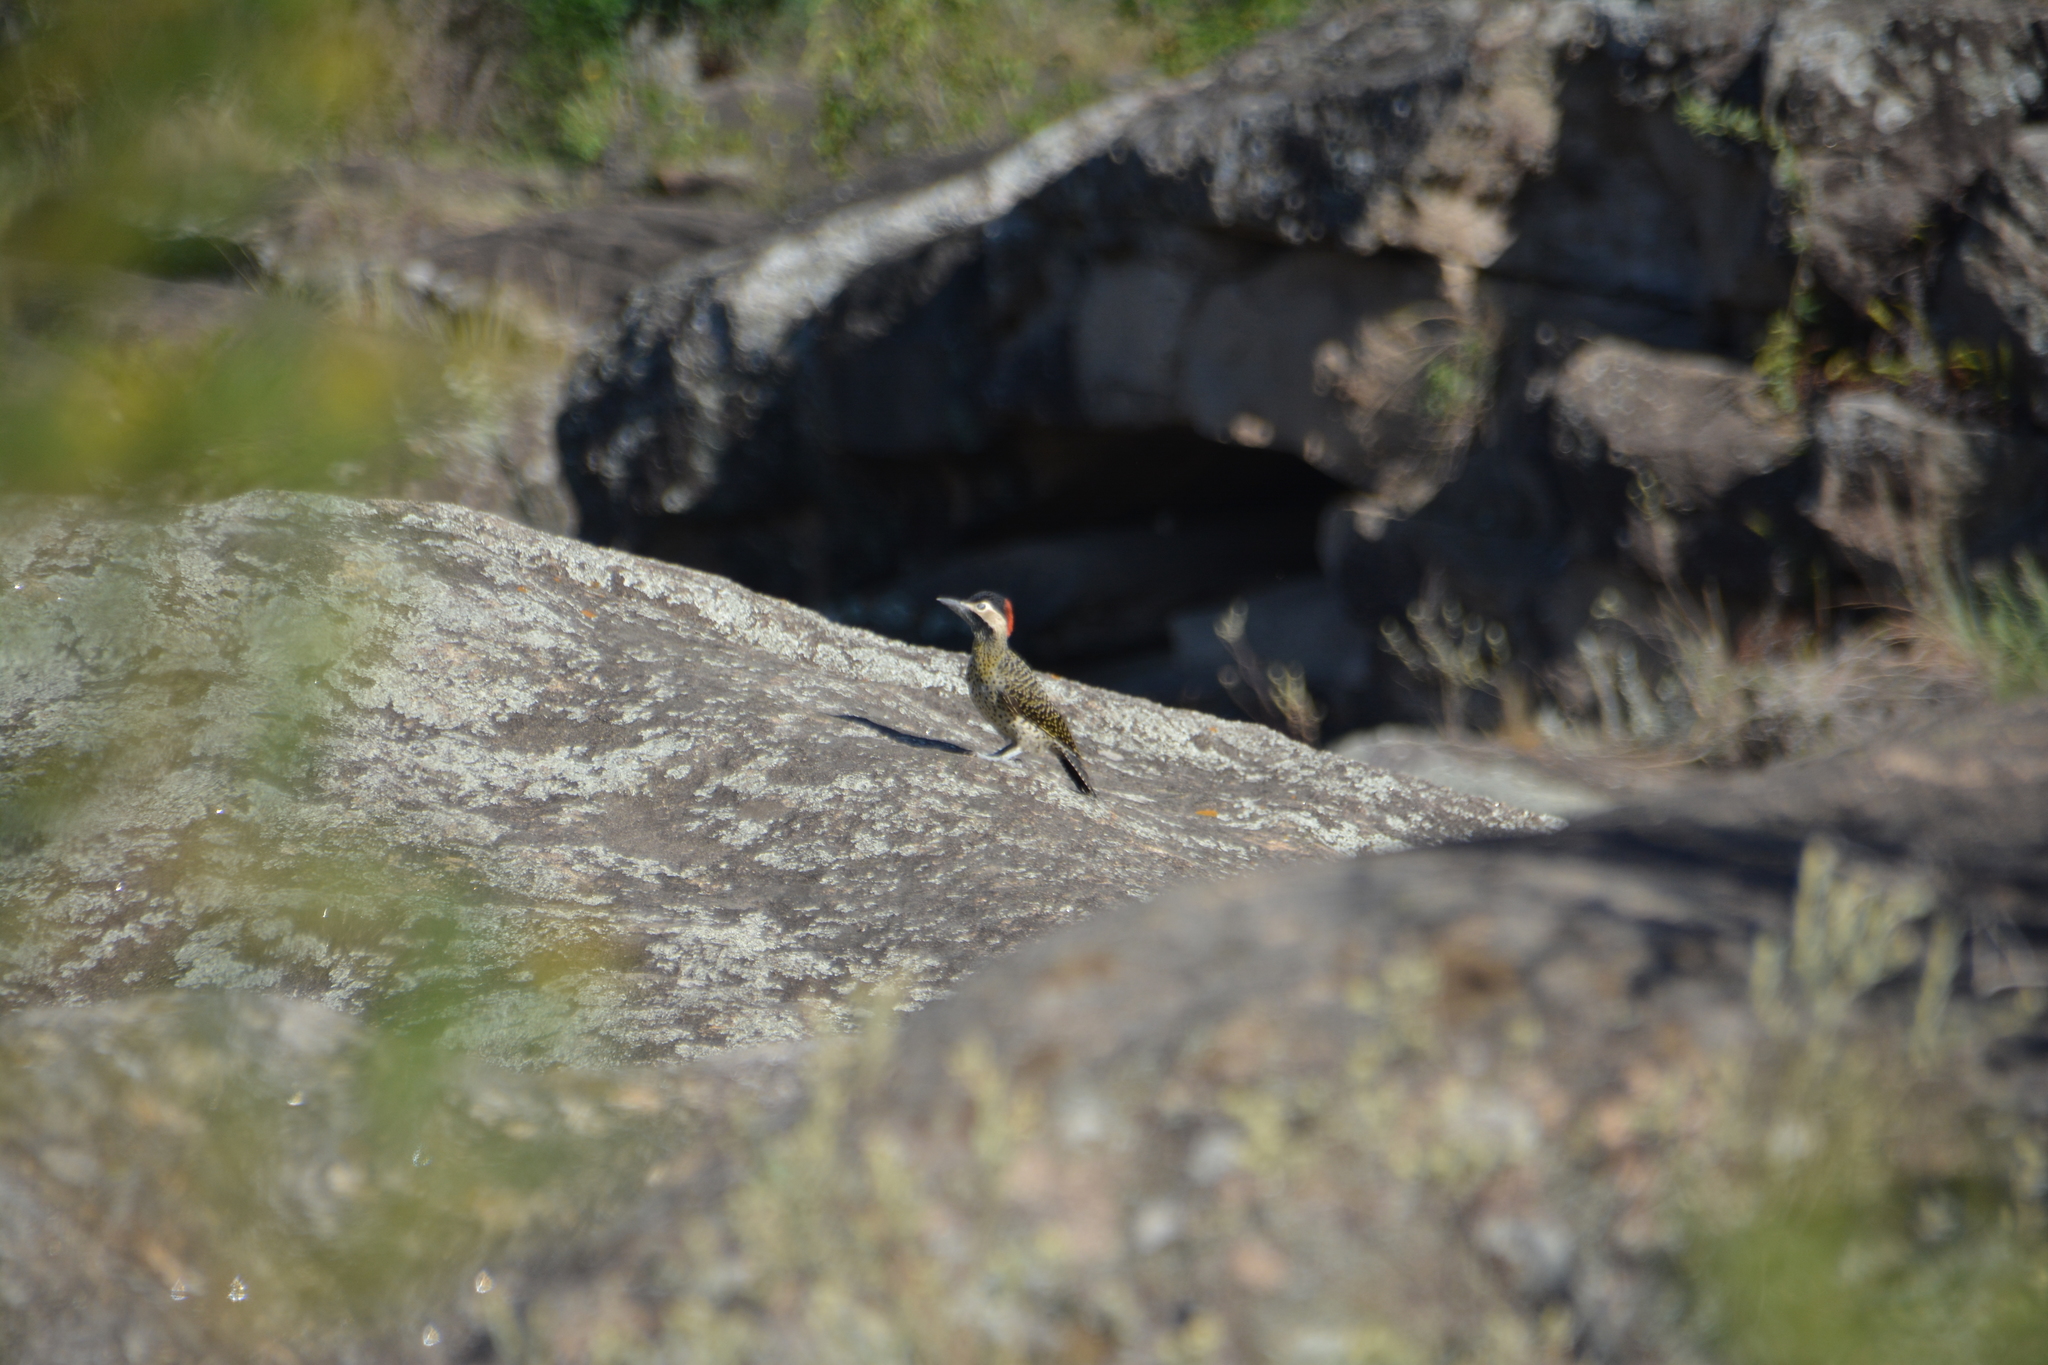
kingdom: Animalia
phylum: Chordata
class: Aves
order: Piciformes
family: Picidae
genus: Colaptes
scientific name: Colaptes melanochloros
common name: Green-barred woodpecker
